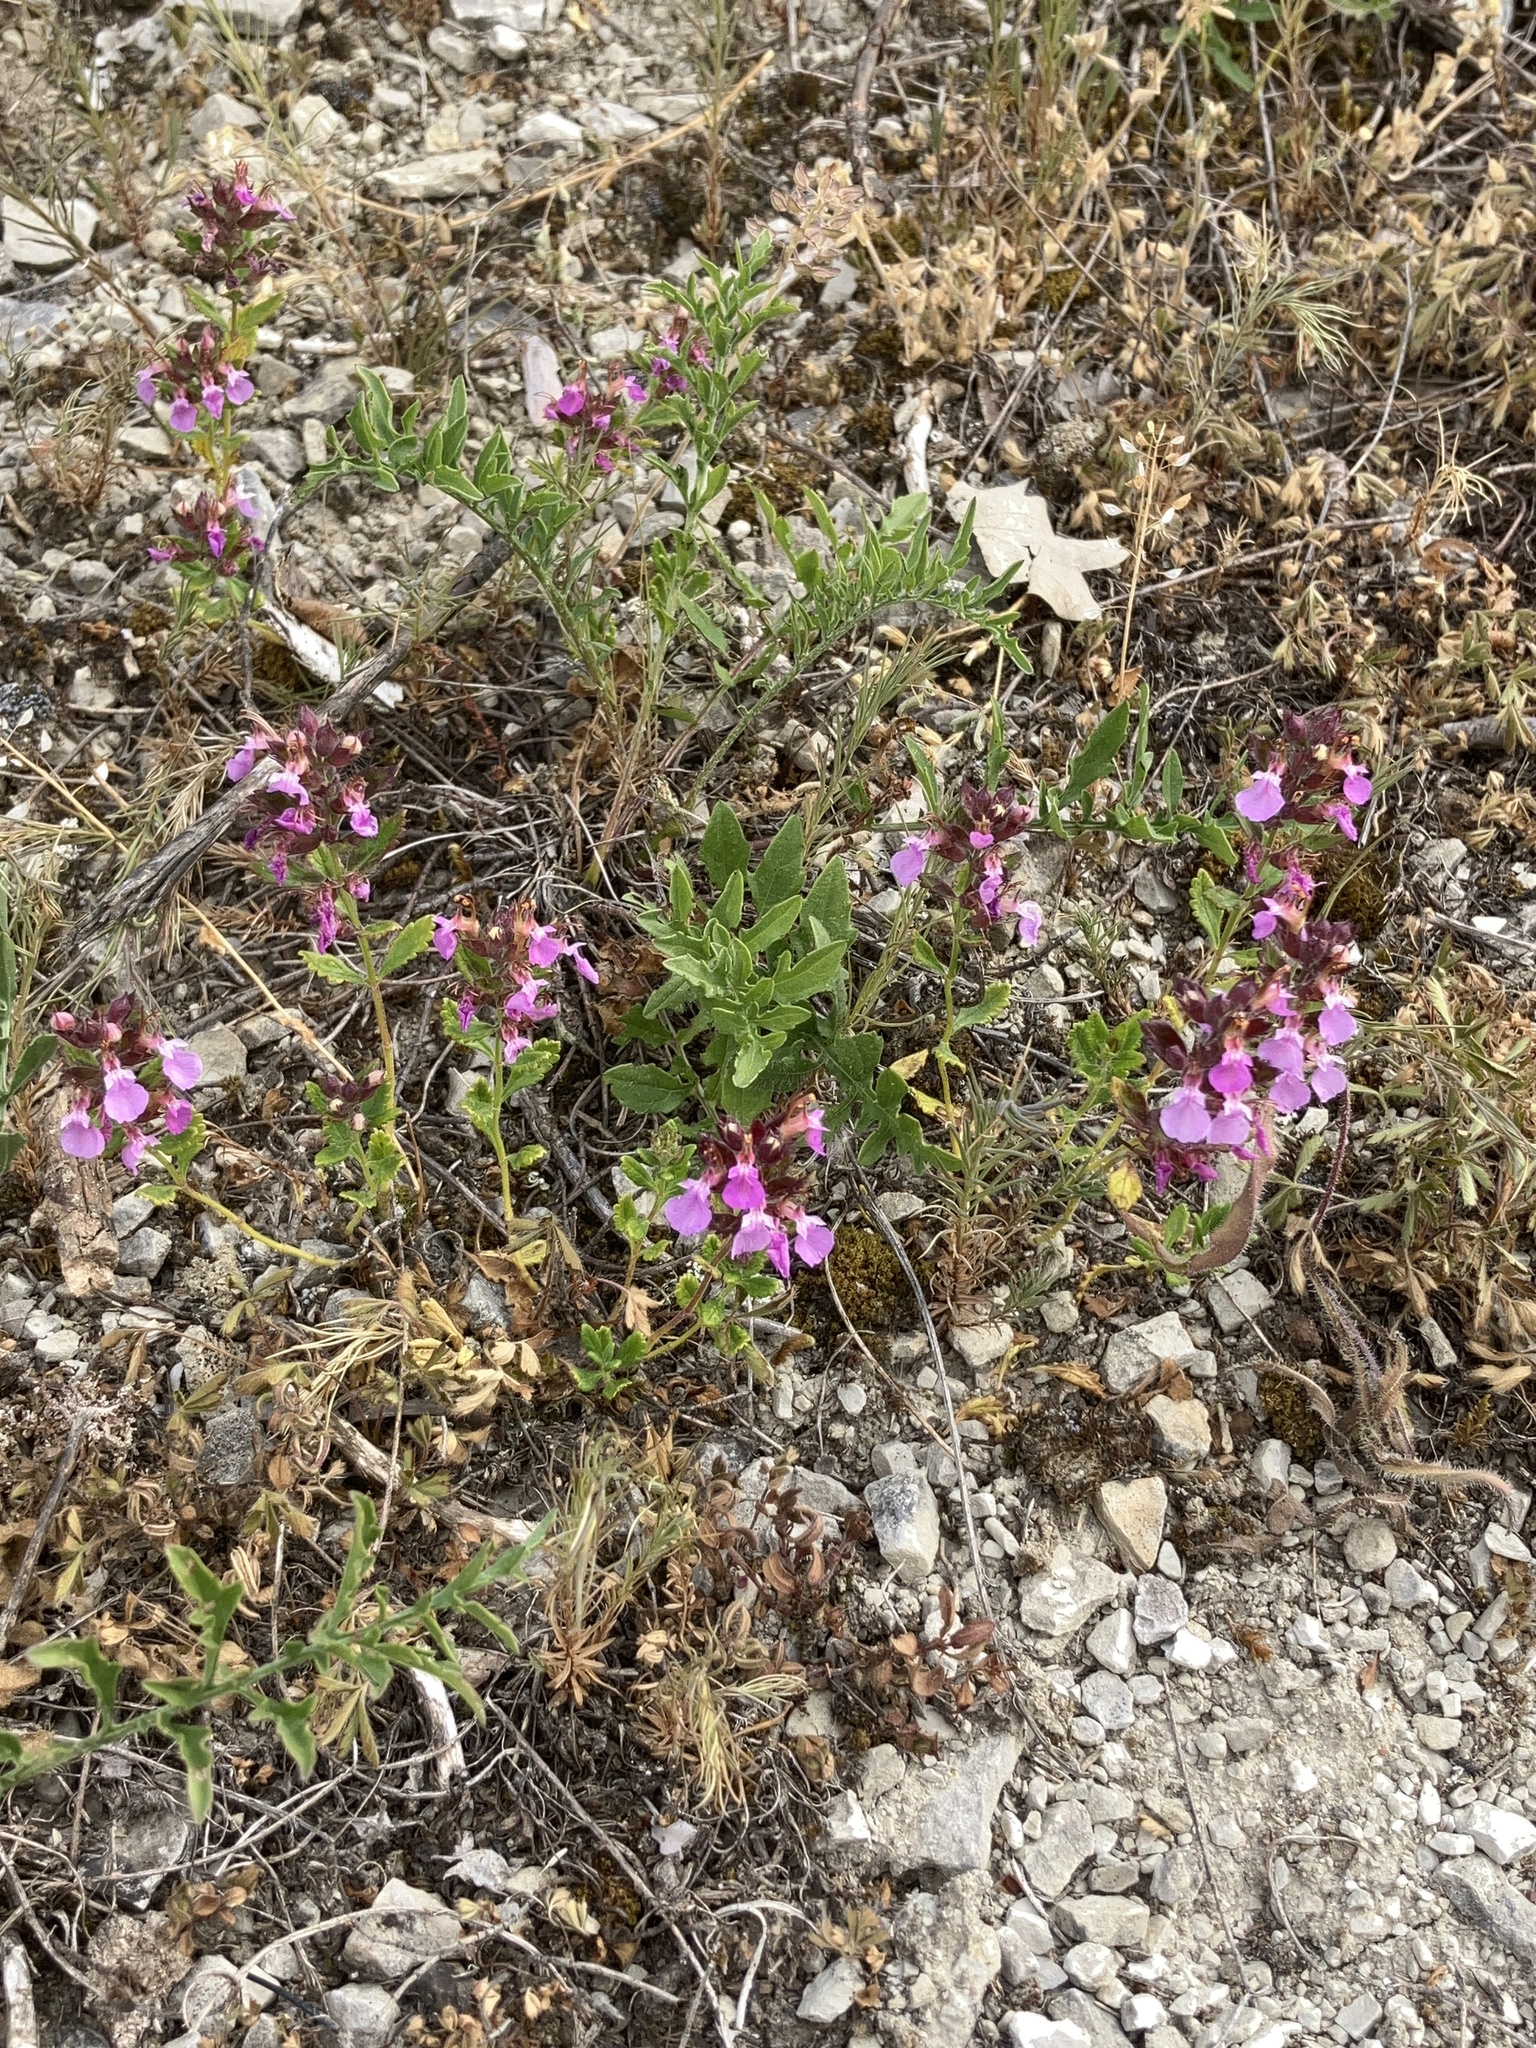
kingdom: Plantae
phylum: Tracheophyta
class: Magnoliopsida
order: Lamiales
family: Lamiaceae
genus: Teucrium
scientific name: Teucrium chamaedrys
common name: Wall germander
